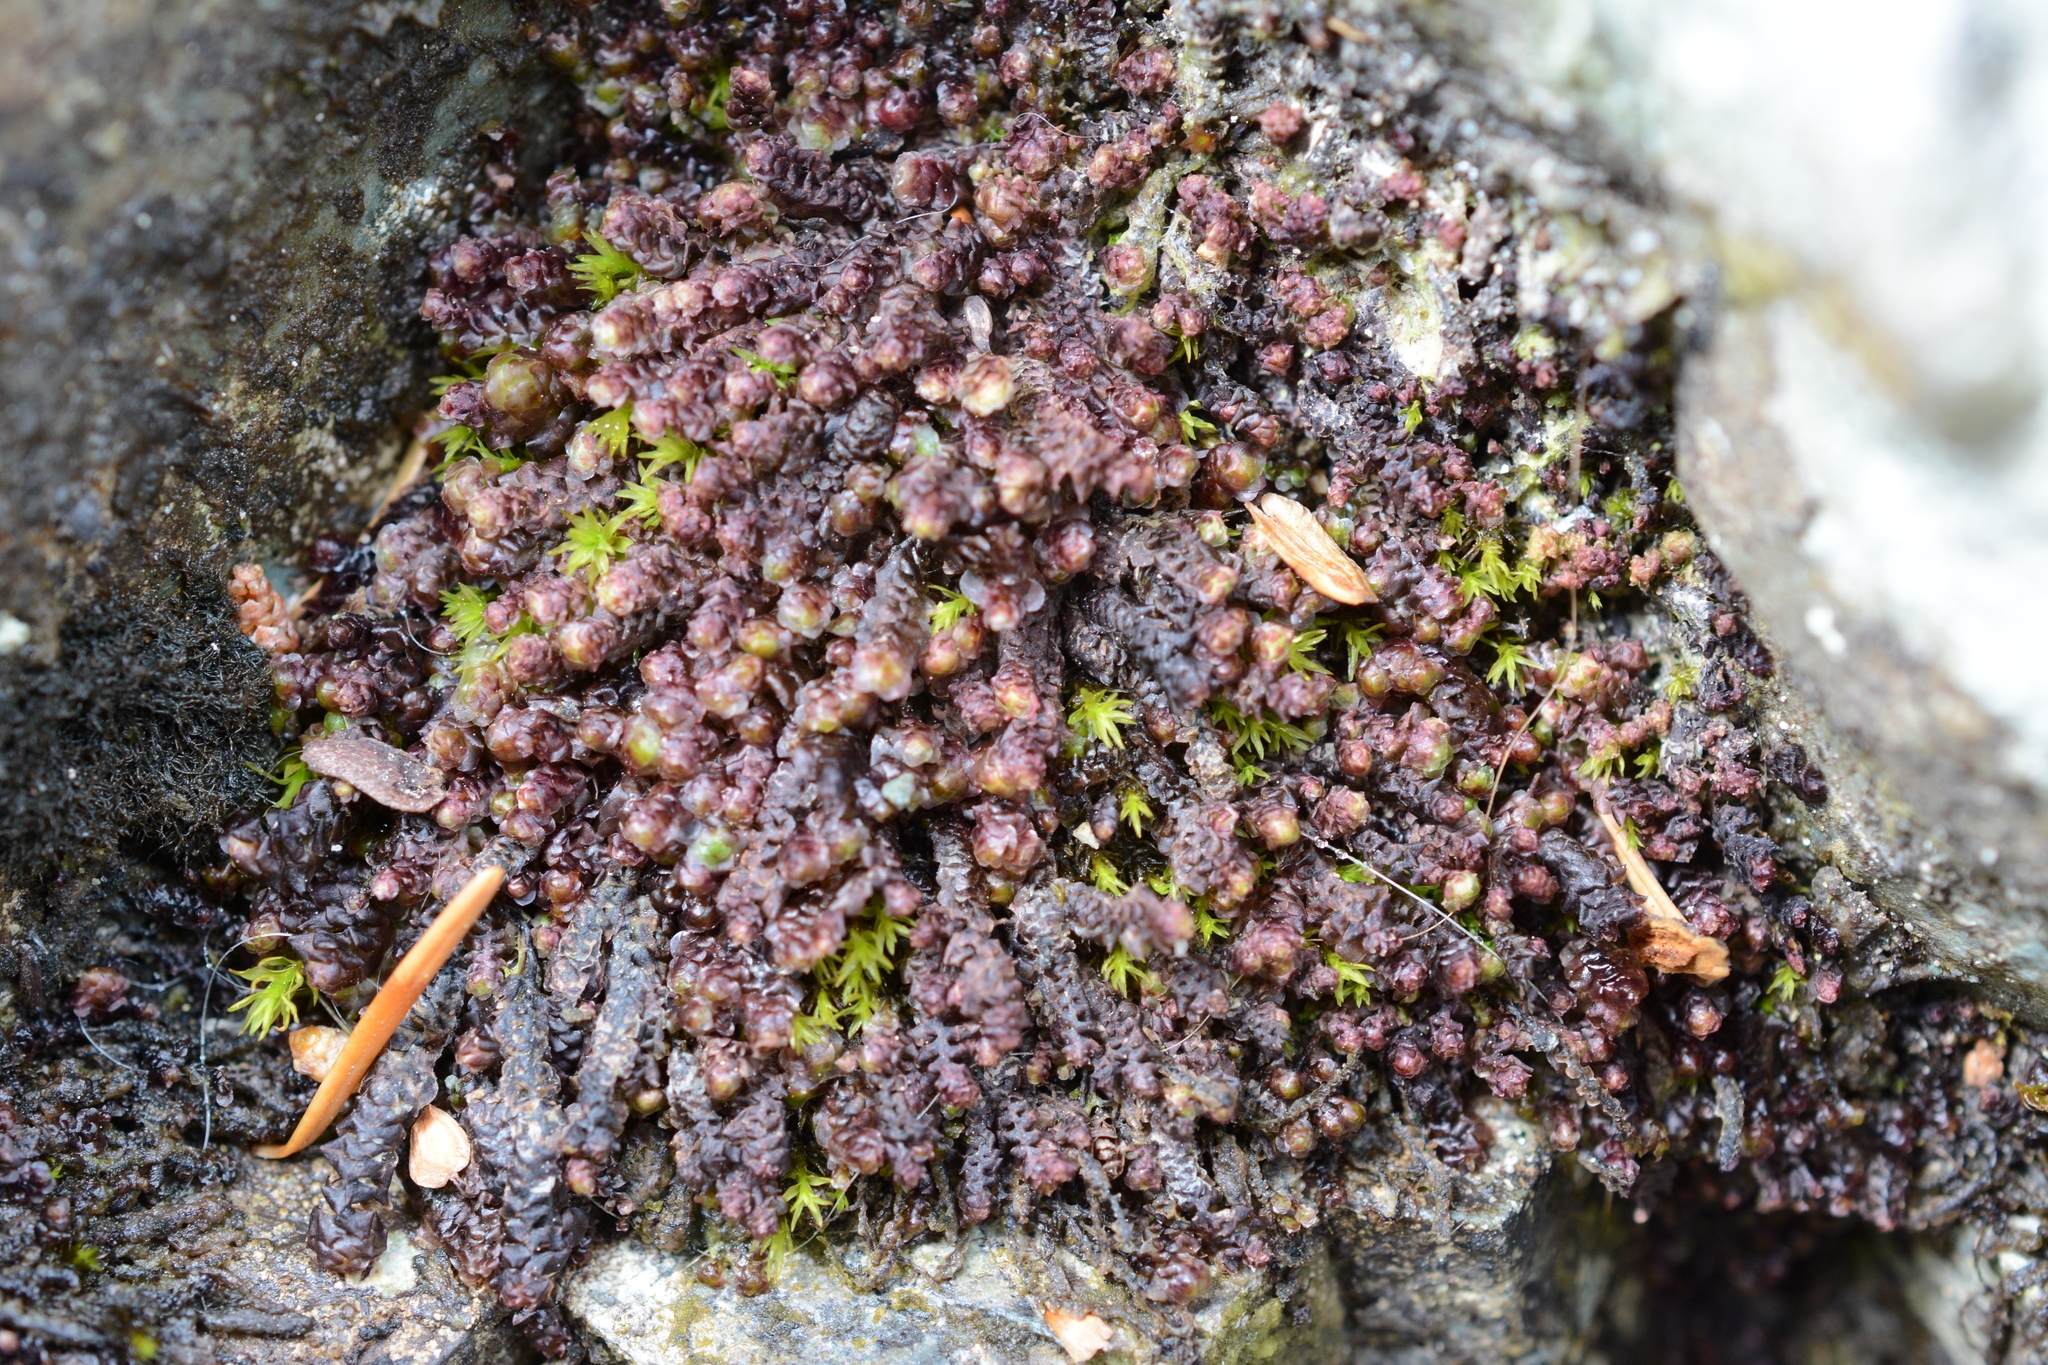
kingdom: Plantae
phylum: Marchantiophyta
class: Jungermanniopsida
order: Jungermanniales
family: Scapaniaceae
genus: Scapania
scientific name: Scapania americana
